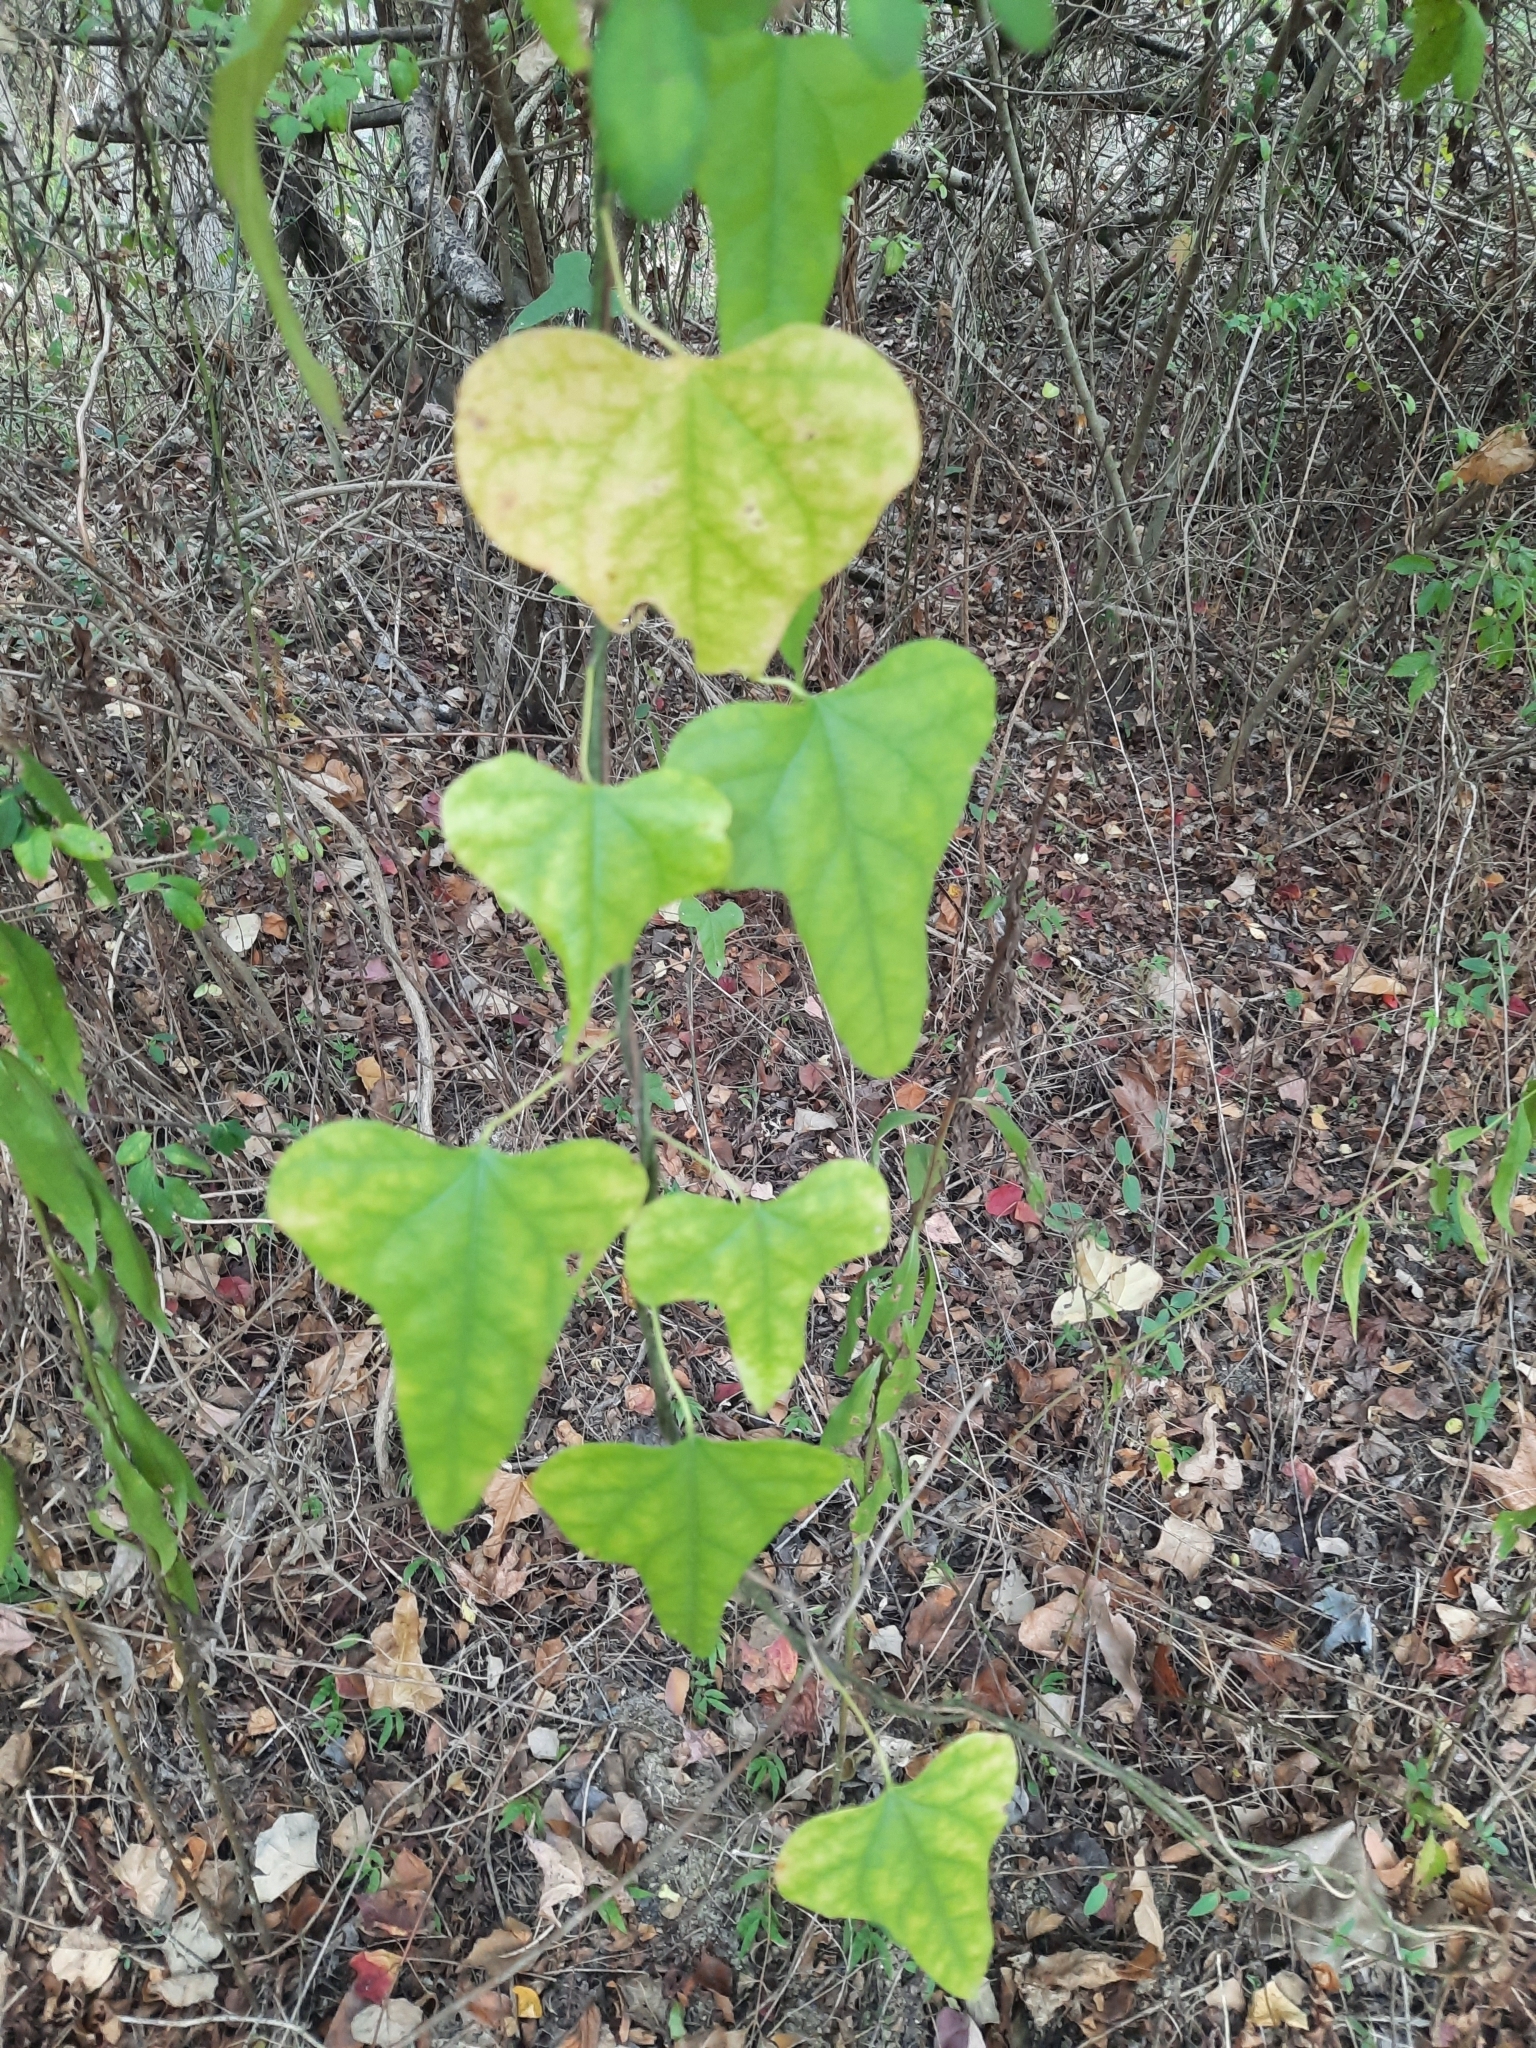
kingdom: Plantae
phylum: Tracheophyta
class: Magnoliopsida
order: Ranunculales
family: Menispermaceae
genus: Cocculus
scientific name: Cocculus carolinus
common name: Carolina moonseed
